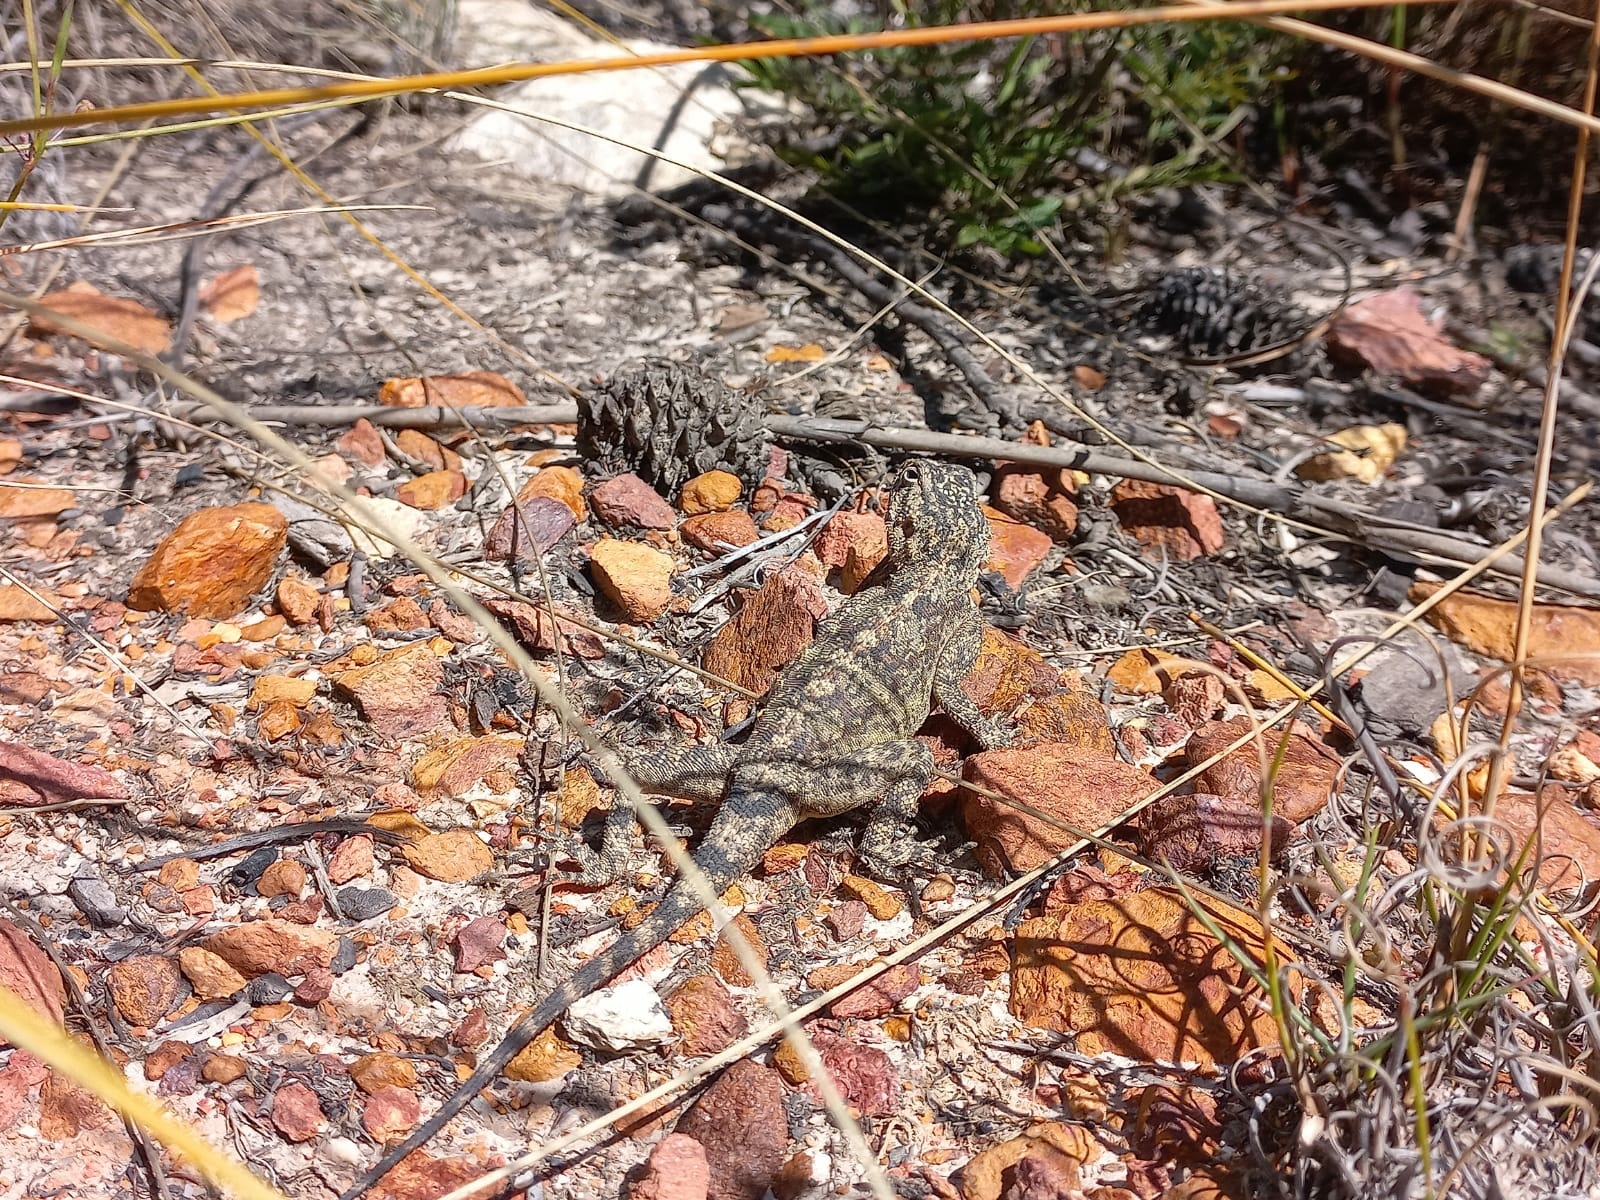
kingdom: Animalia
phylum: Chordata
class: Squamata
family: Agamidae
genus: Agama
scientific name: Agama atra
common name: Southern african rock agama
